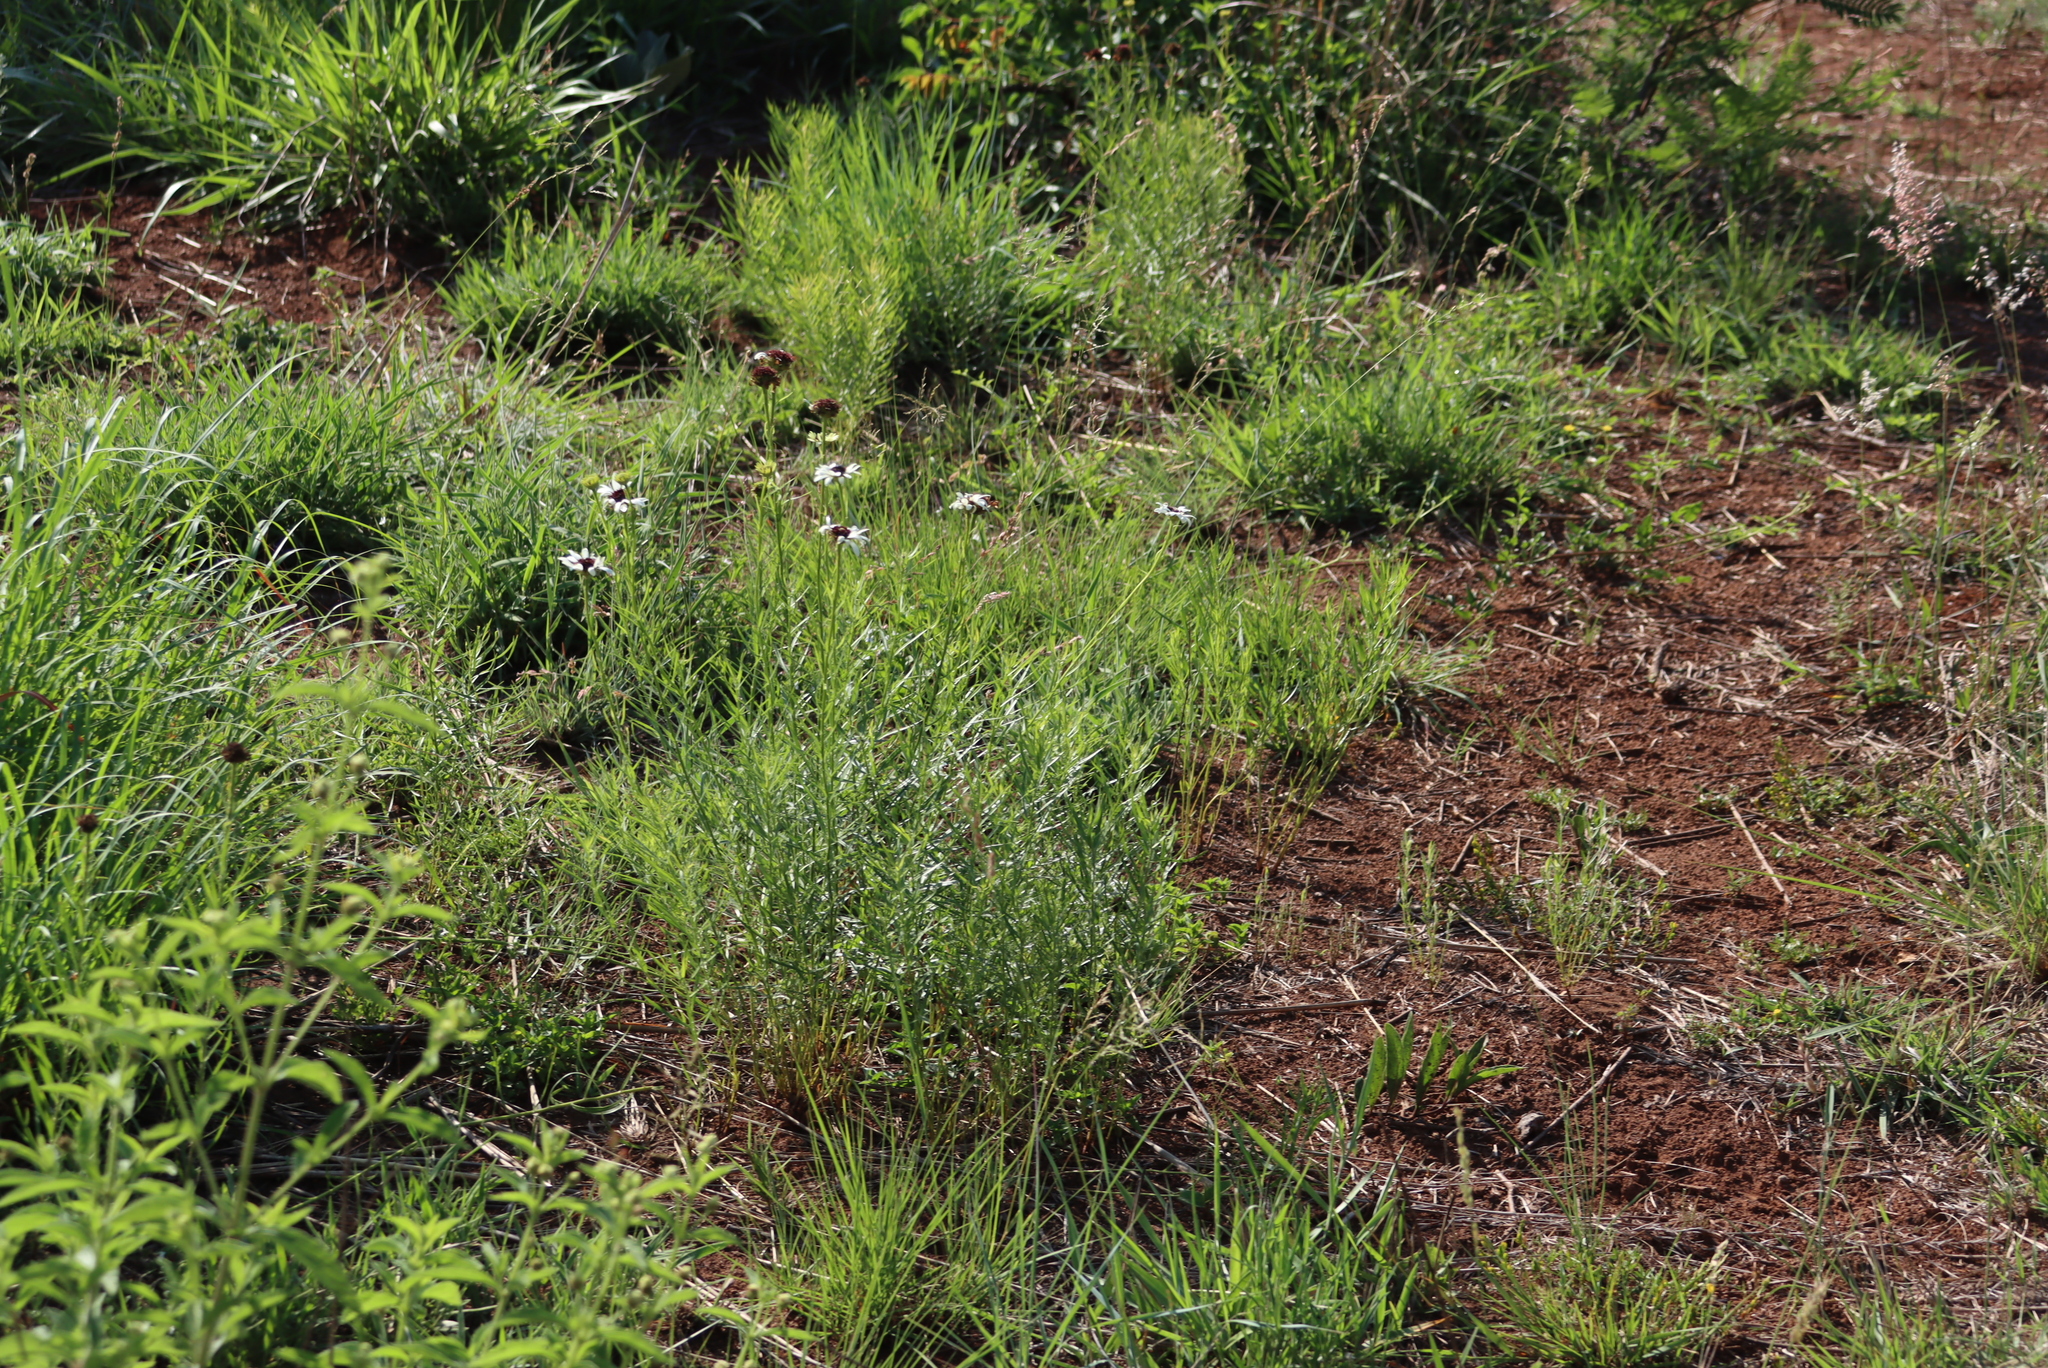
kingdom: Plantae
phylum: Tracheophyta
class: Magnoliopsida
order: Asterales
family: Asteraceae
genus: Callilepis
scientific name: Callilepis laureola
